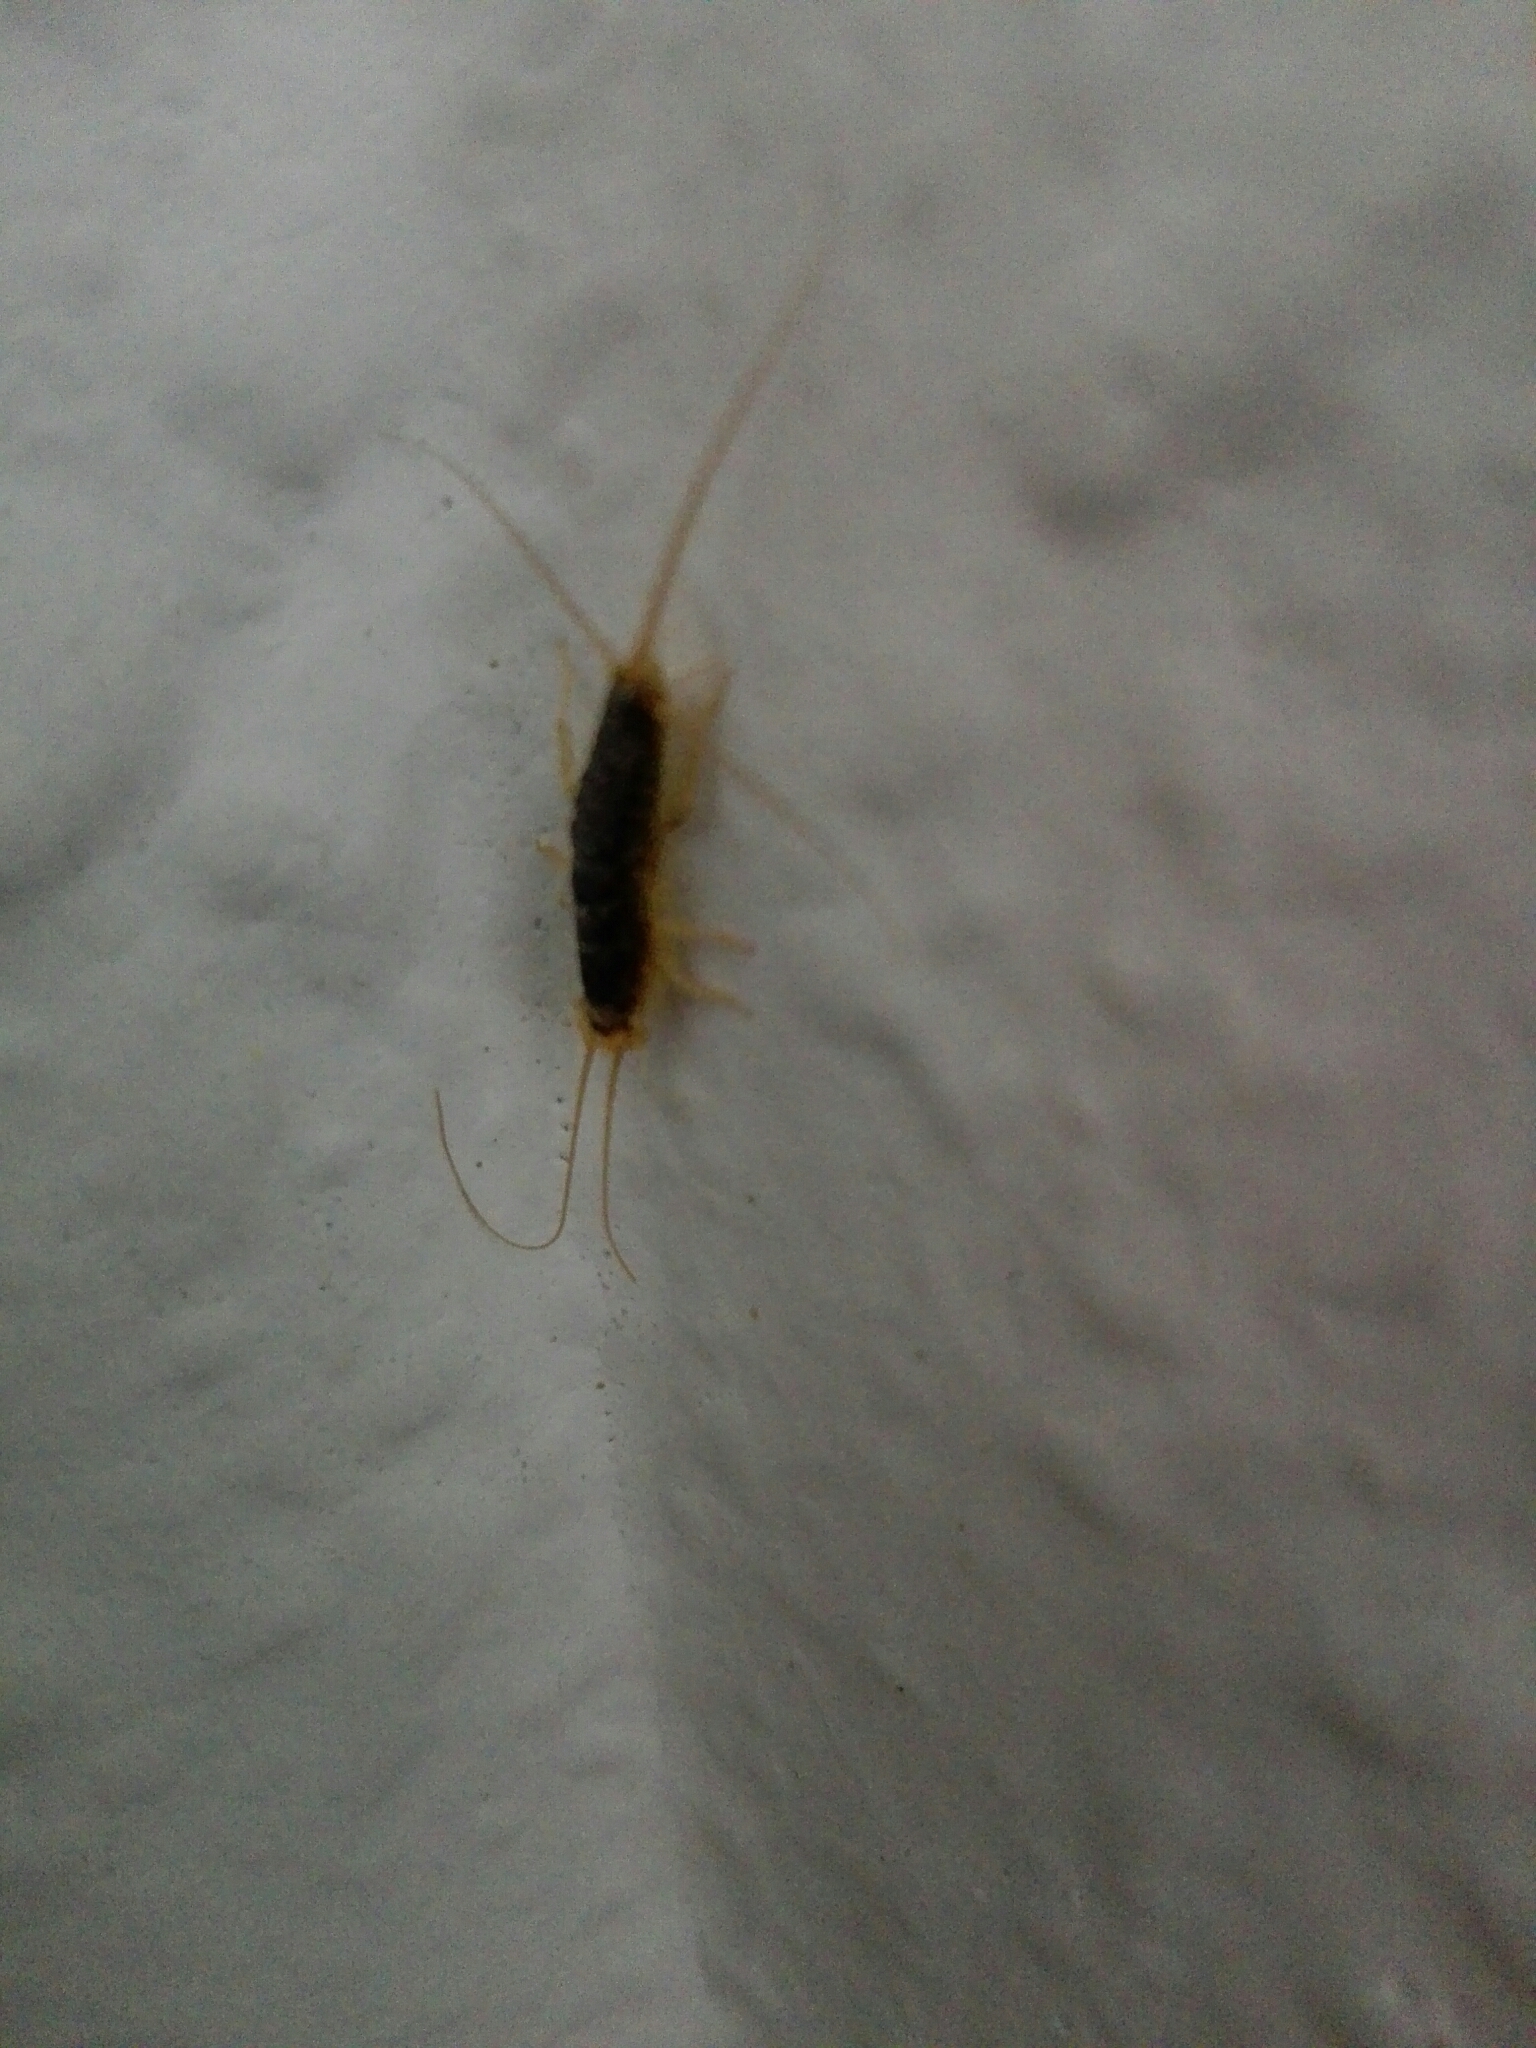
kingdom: Animalia
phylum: Arthropoda
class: Insecta
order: Zygentoma
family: Lepismatidae
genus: Ctenolepisma
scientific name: Ctenolepisma longicaudatum
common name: Silverfish
